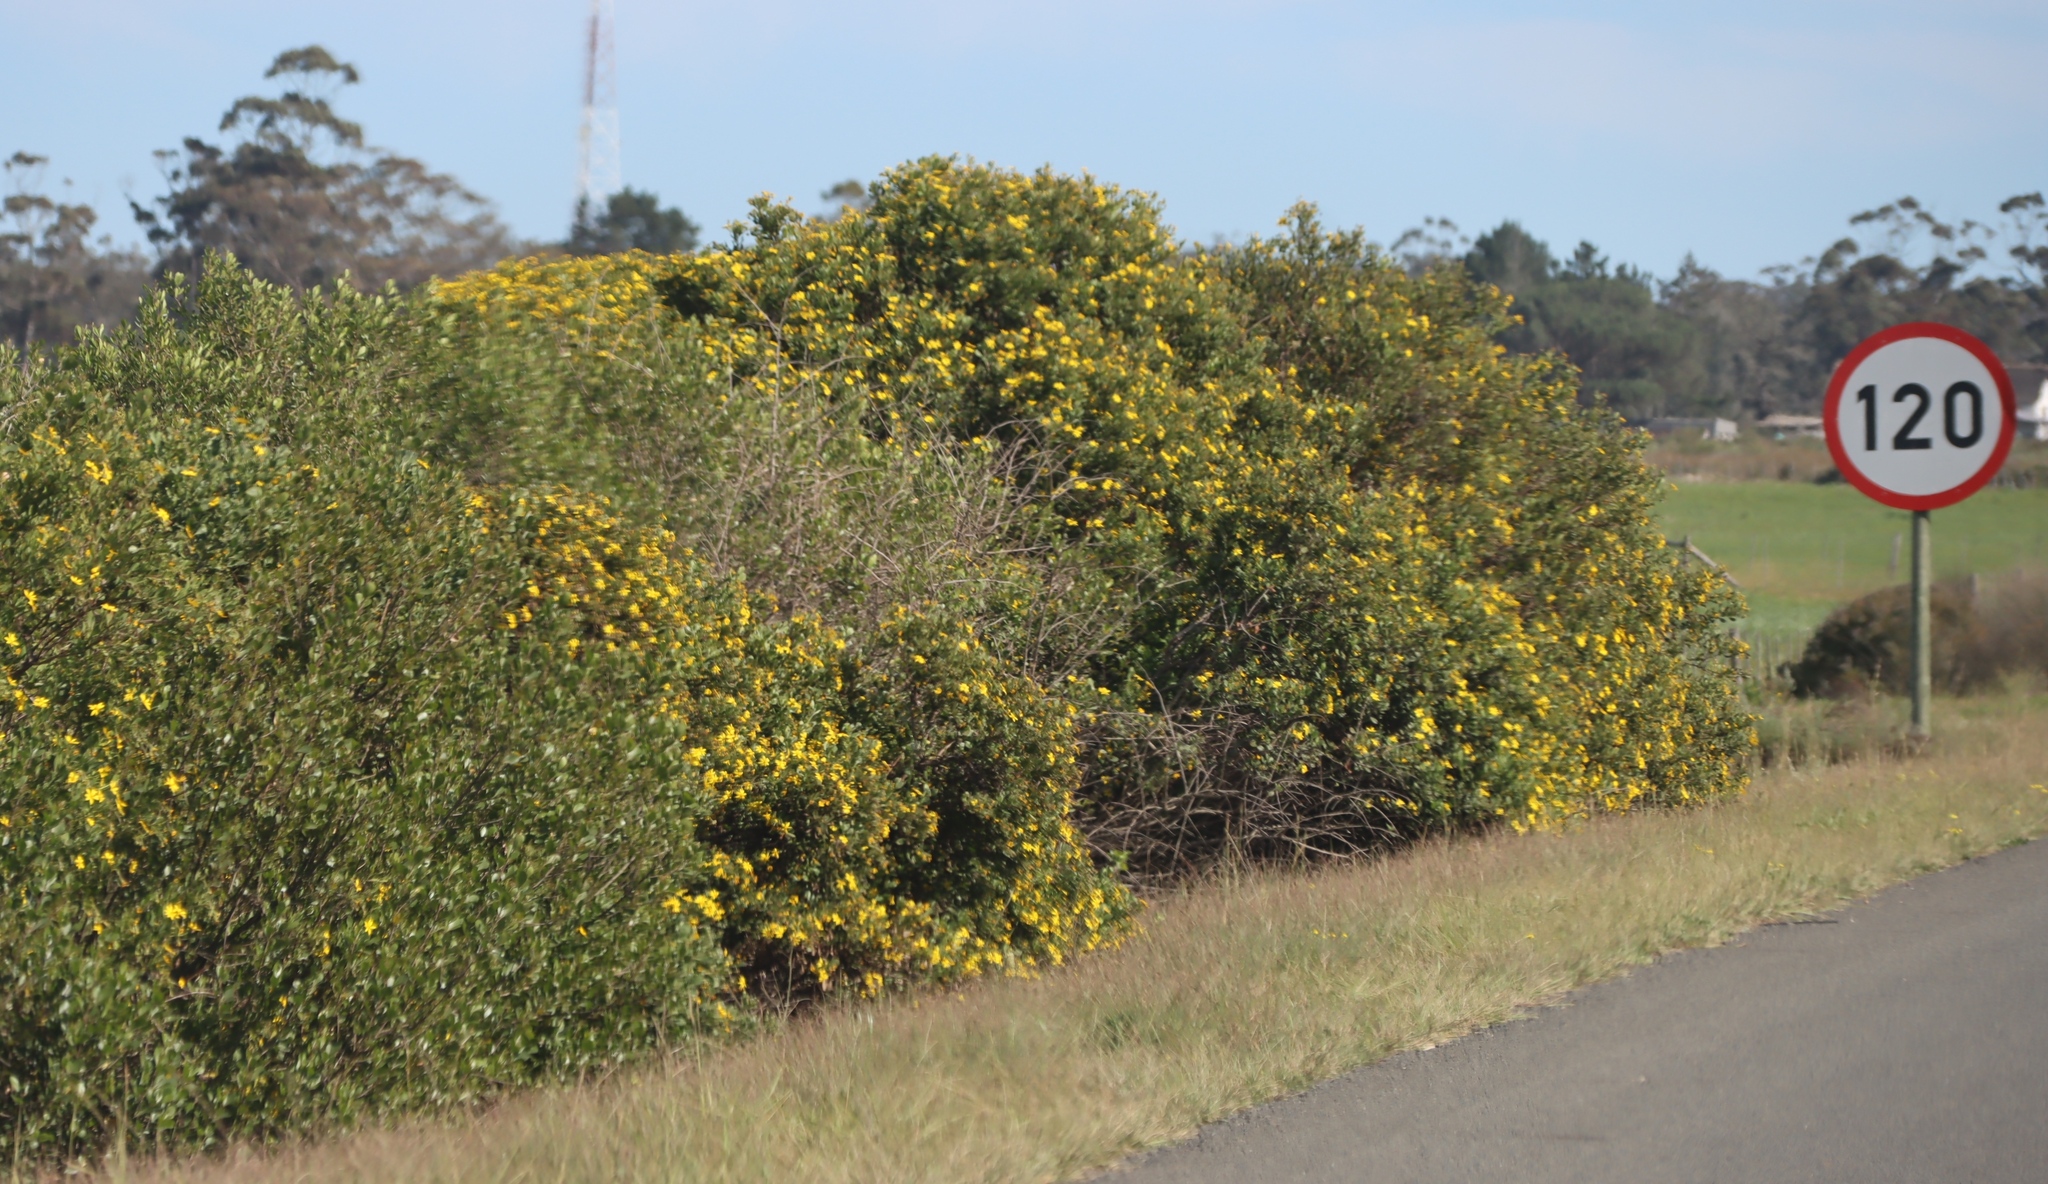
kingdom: Plantae
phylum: Tracheophyta
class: Magnoliopsida
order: Asterales
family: Asteraceae
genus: Osteospermum
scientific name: Osteospermum moniliferum
